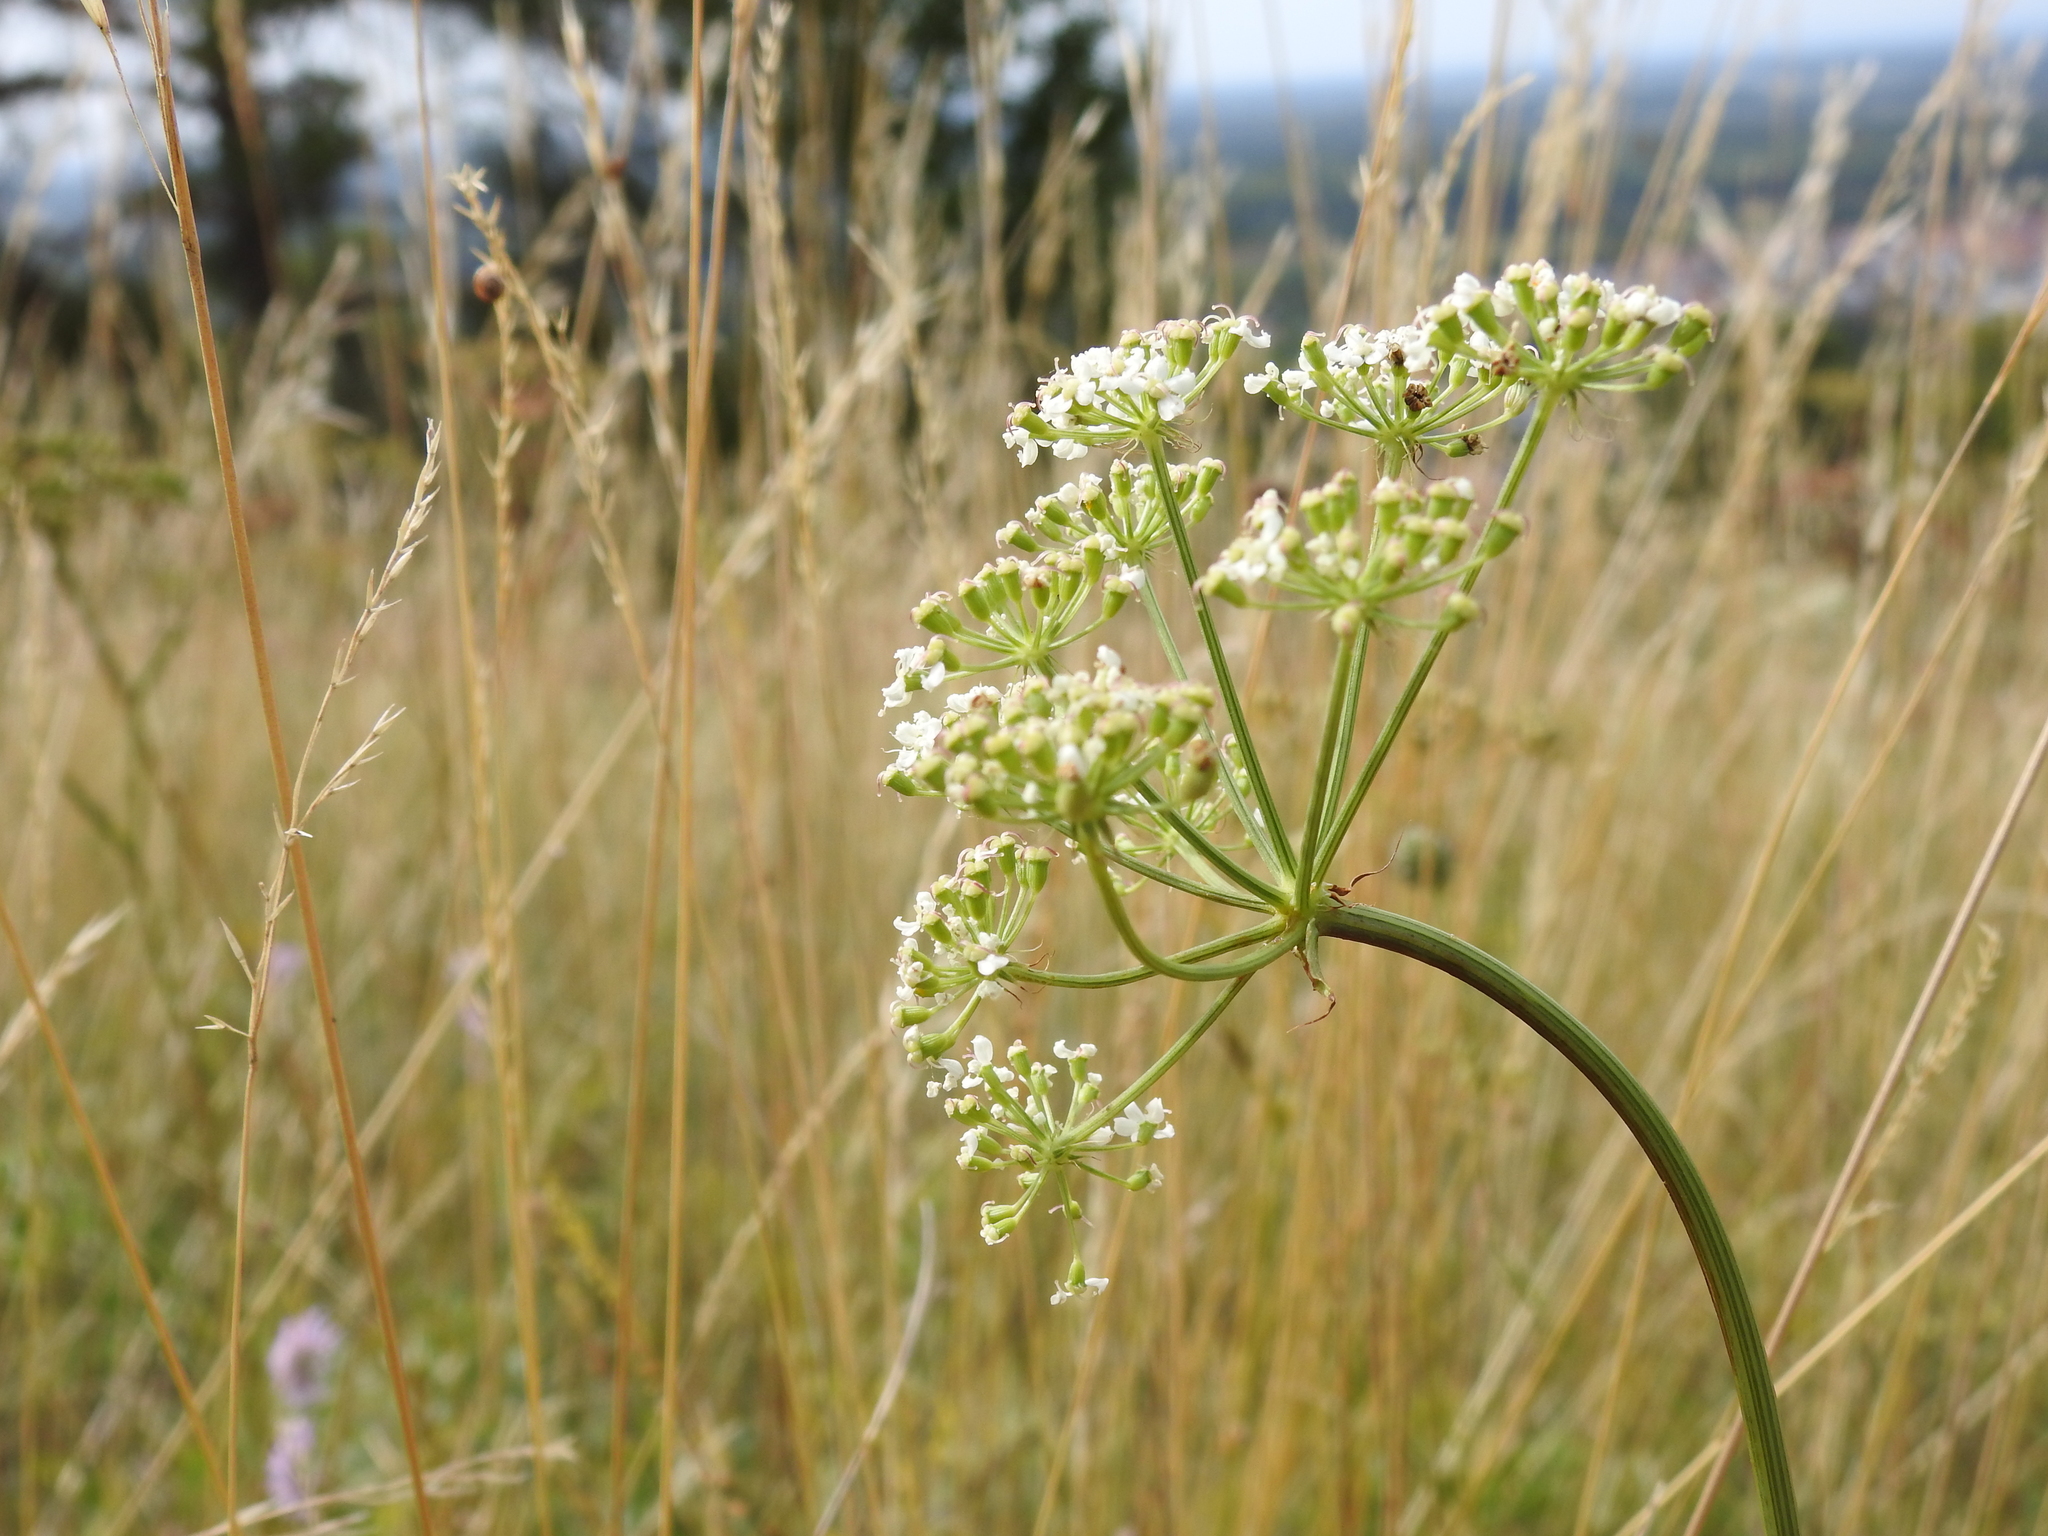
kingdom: Plantae
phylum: Tracheophyta
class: Magnoliopsida
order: Apiales
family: Apiaceae
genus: Cervaria
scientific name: Cervaria rivini
